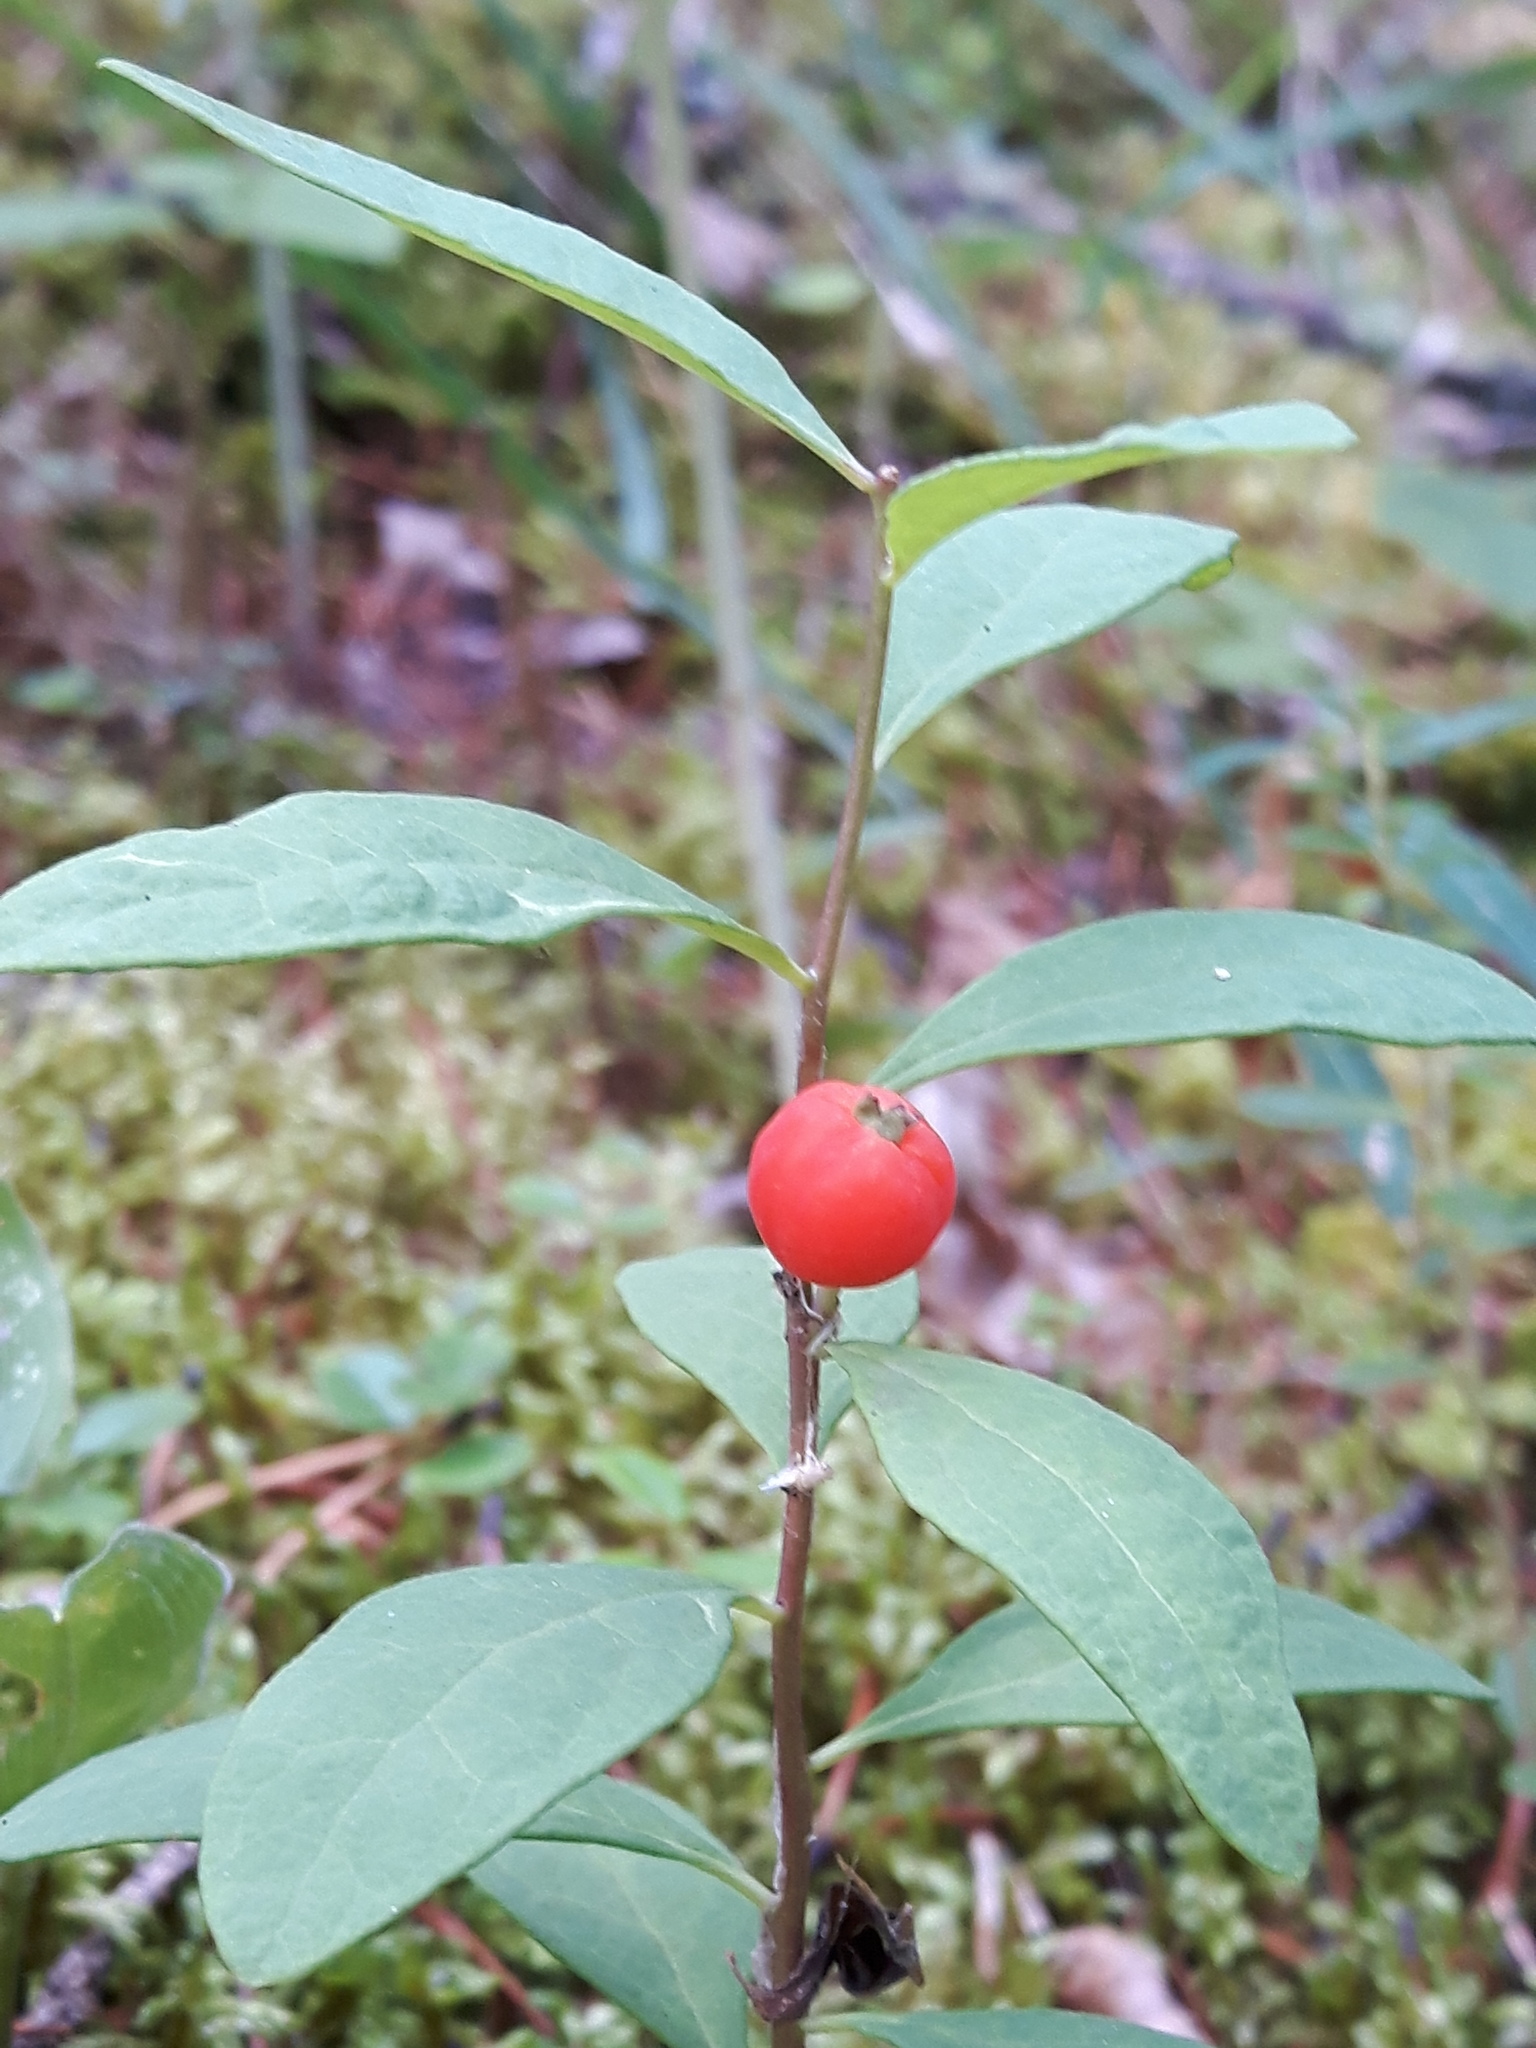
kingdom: Plantae
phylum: Tracheophyta
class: Magnoliopsida
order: Santalales
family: Comandraceae
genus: Geocaulon
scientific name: Geocaulon lividum
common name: Earthberry
